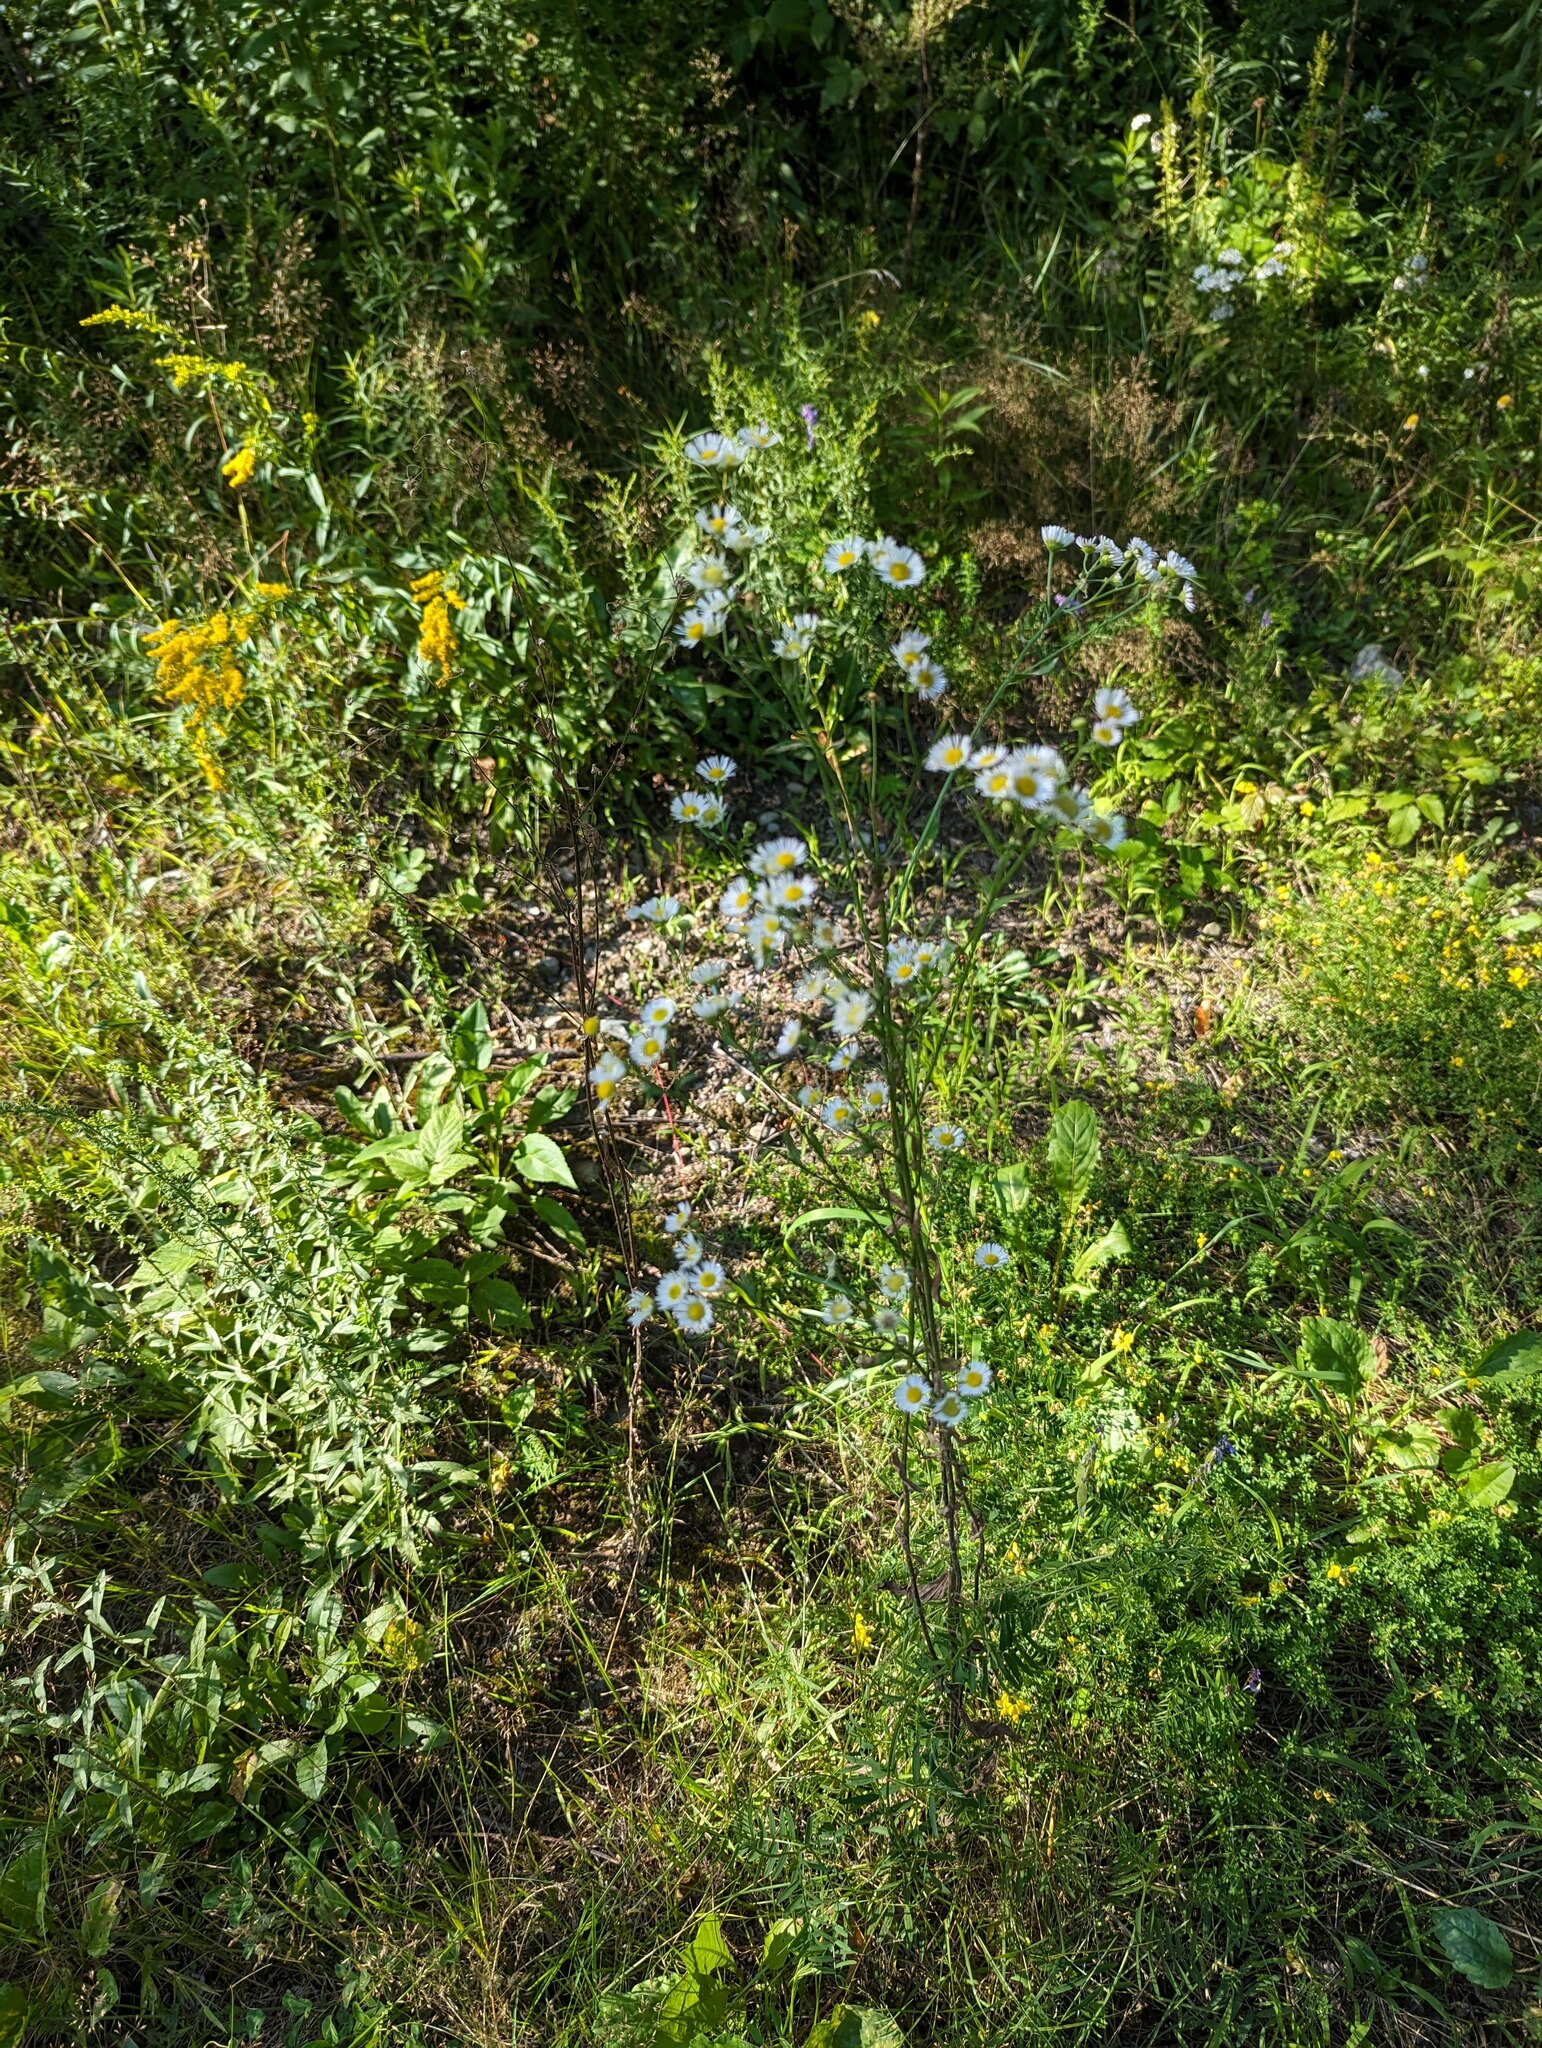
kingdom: Plantae
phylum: Tracheophyta
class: Magnoliopsida
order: Asterales
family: Asteraceae
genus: Erigeron
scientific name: Erigeron strigosus
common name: Common eastern fleabane
